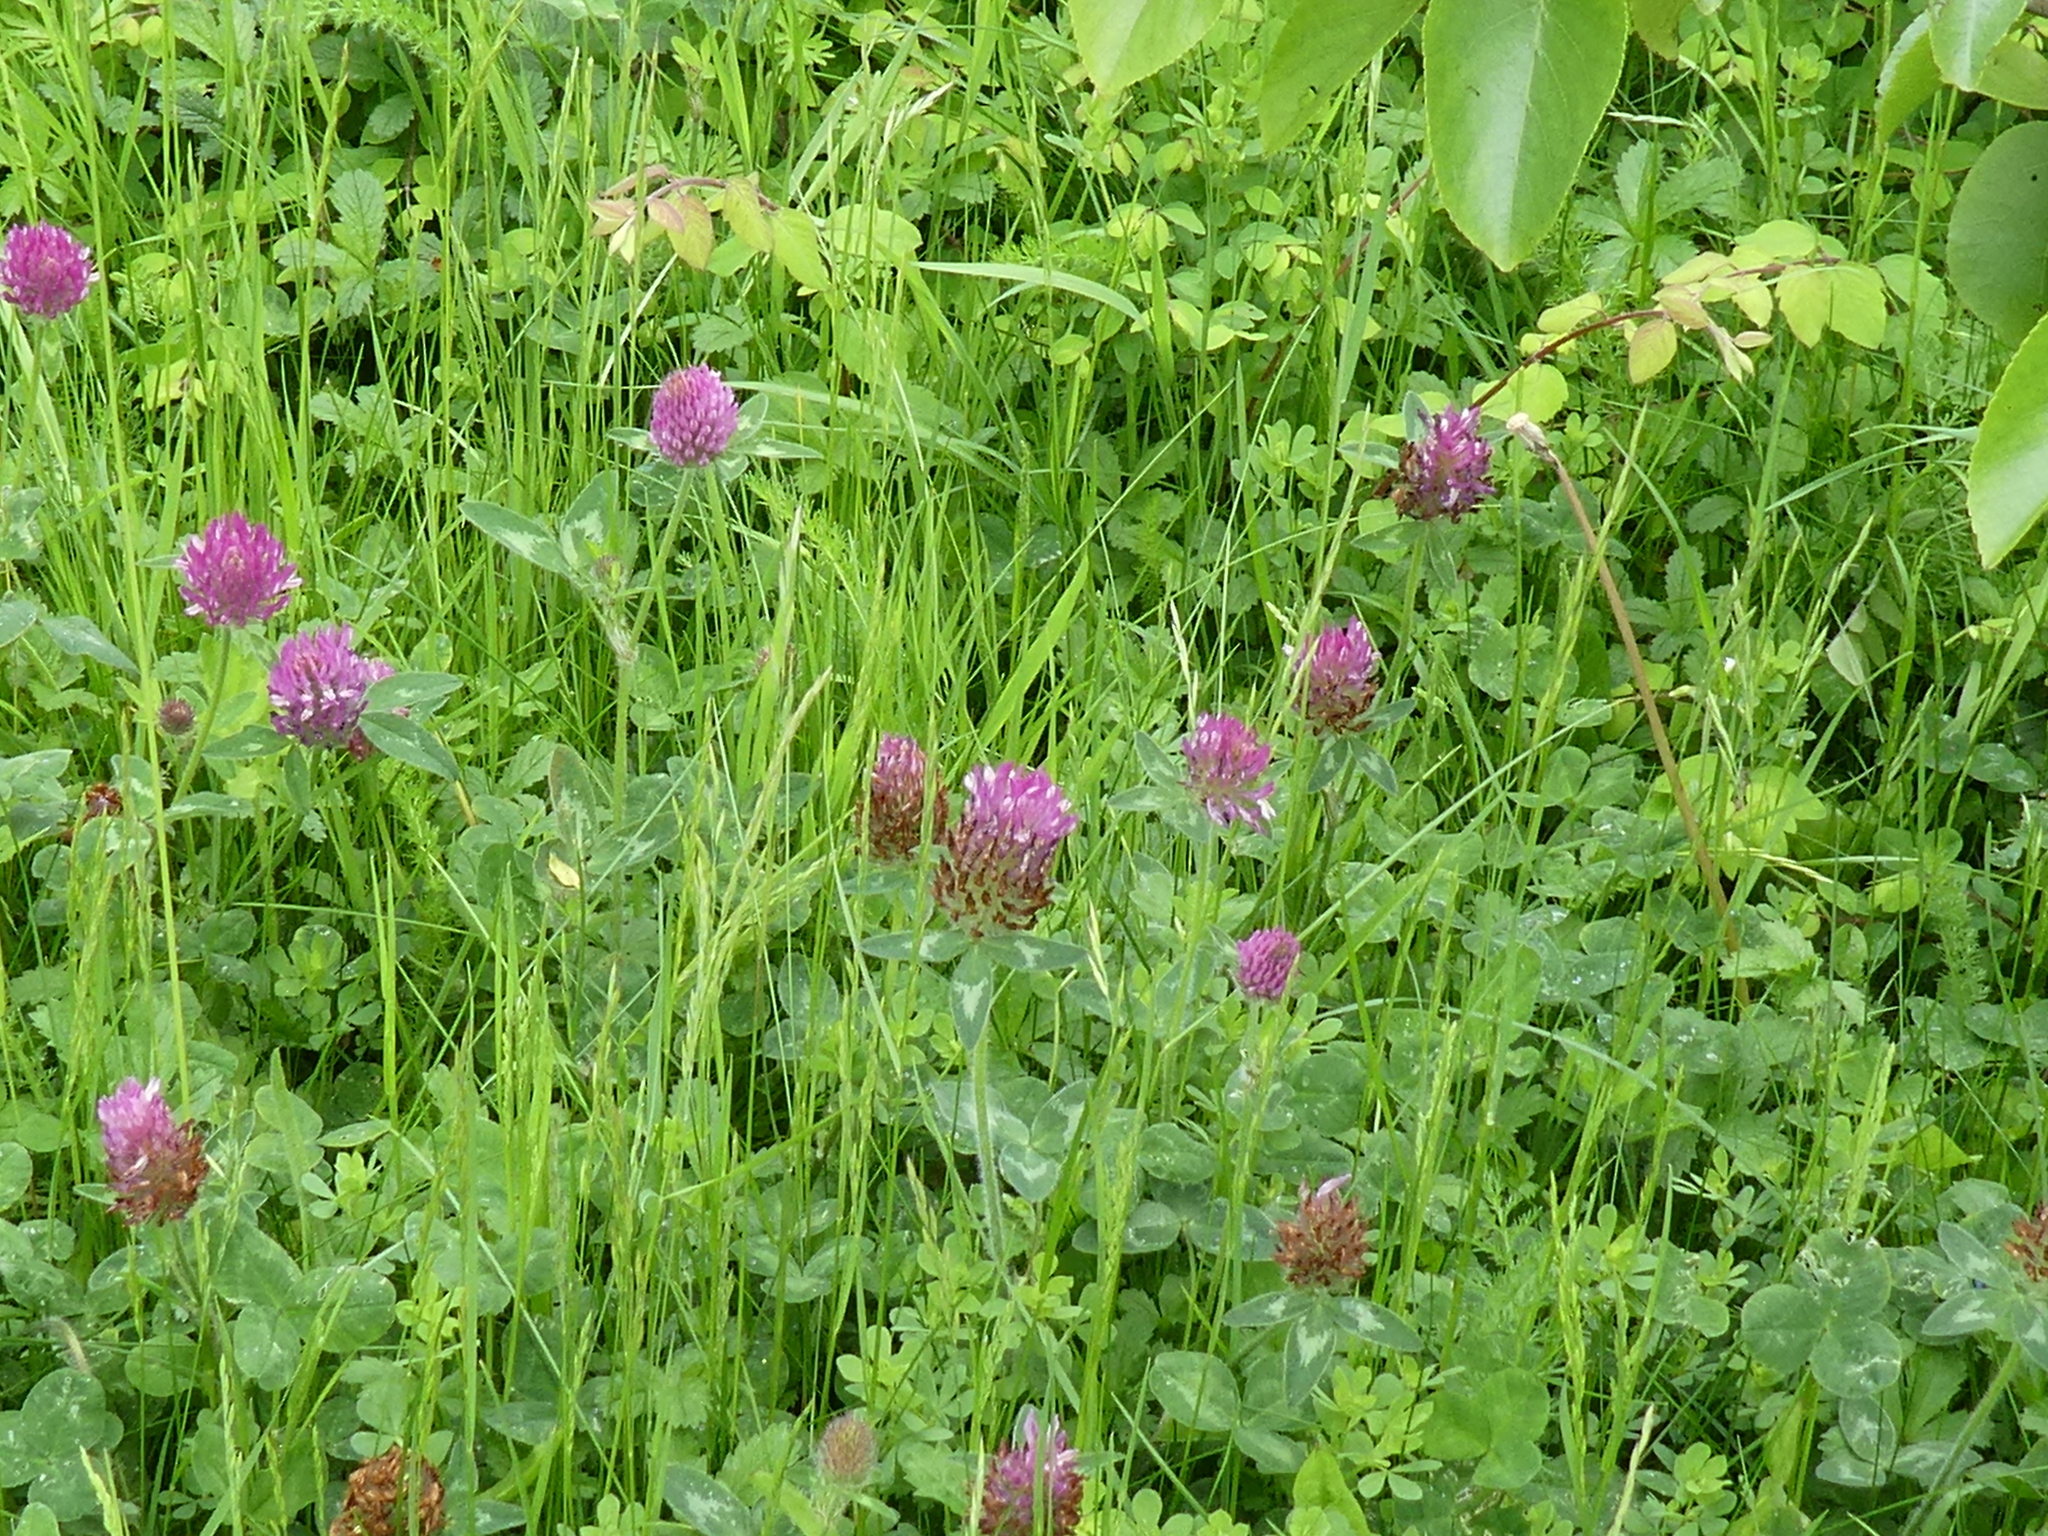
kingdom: Plantae
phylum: Tracheophyta
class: Magnoliopsida
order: Fabales
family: Fabaceae
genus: Trifolium
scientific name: Trifolium pratense
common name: Red clover
